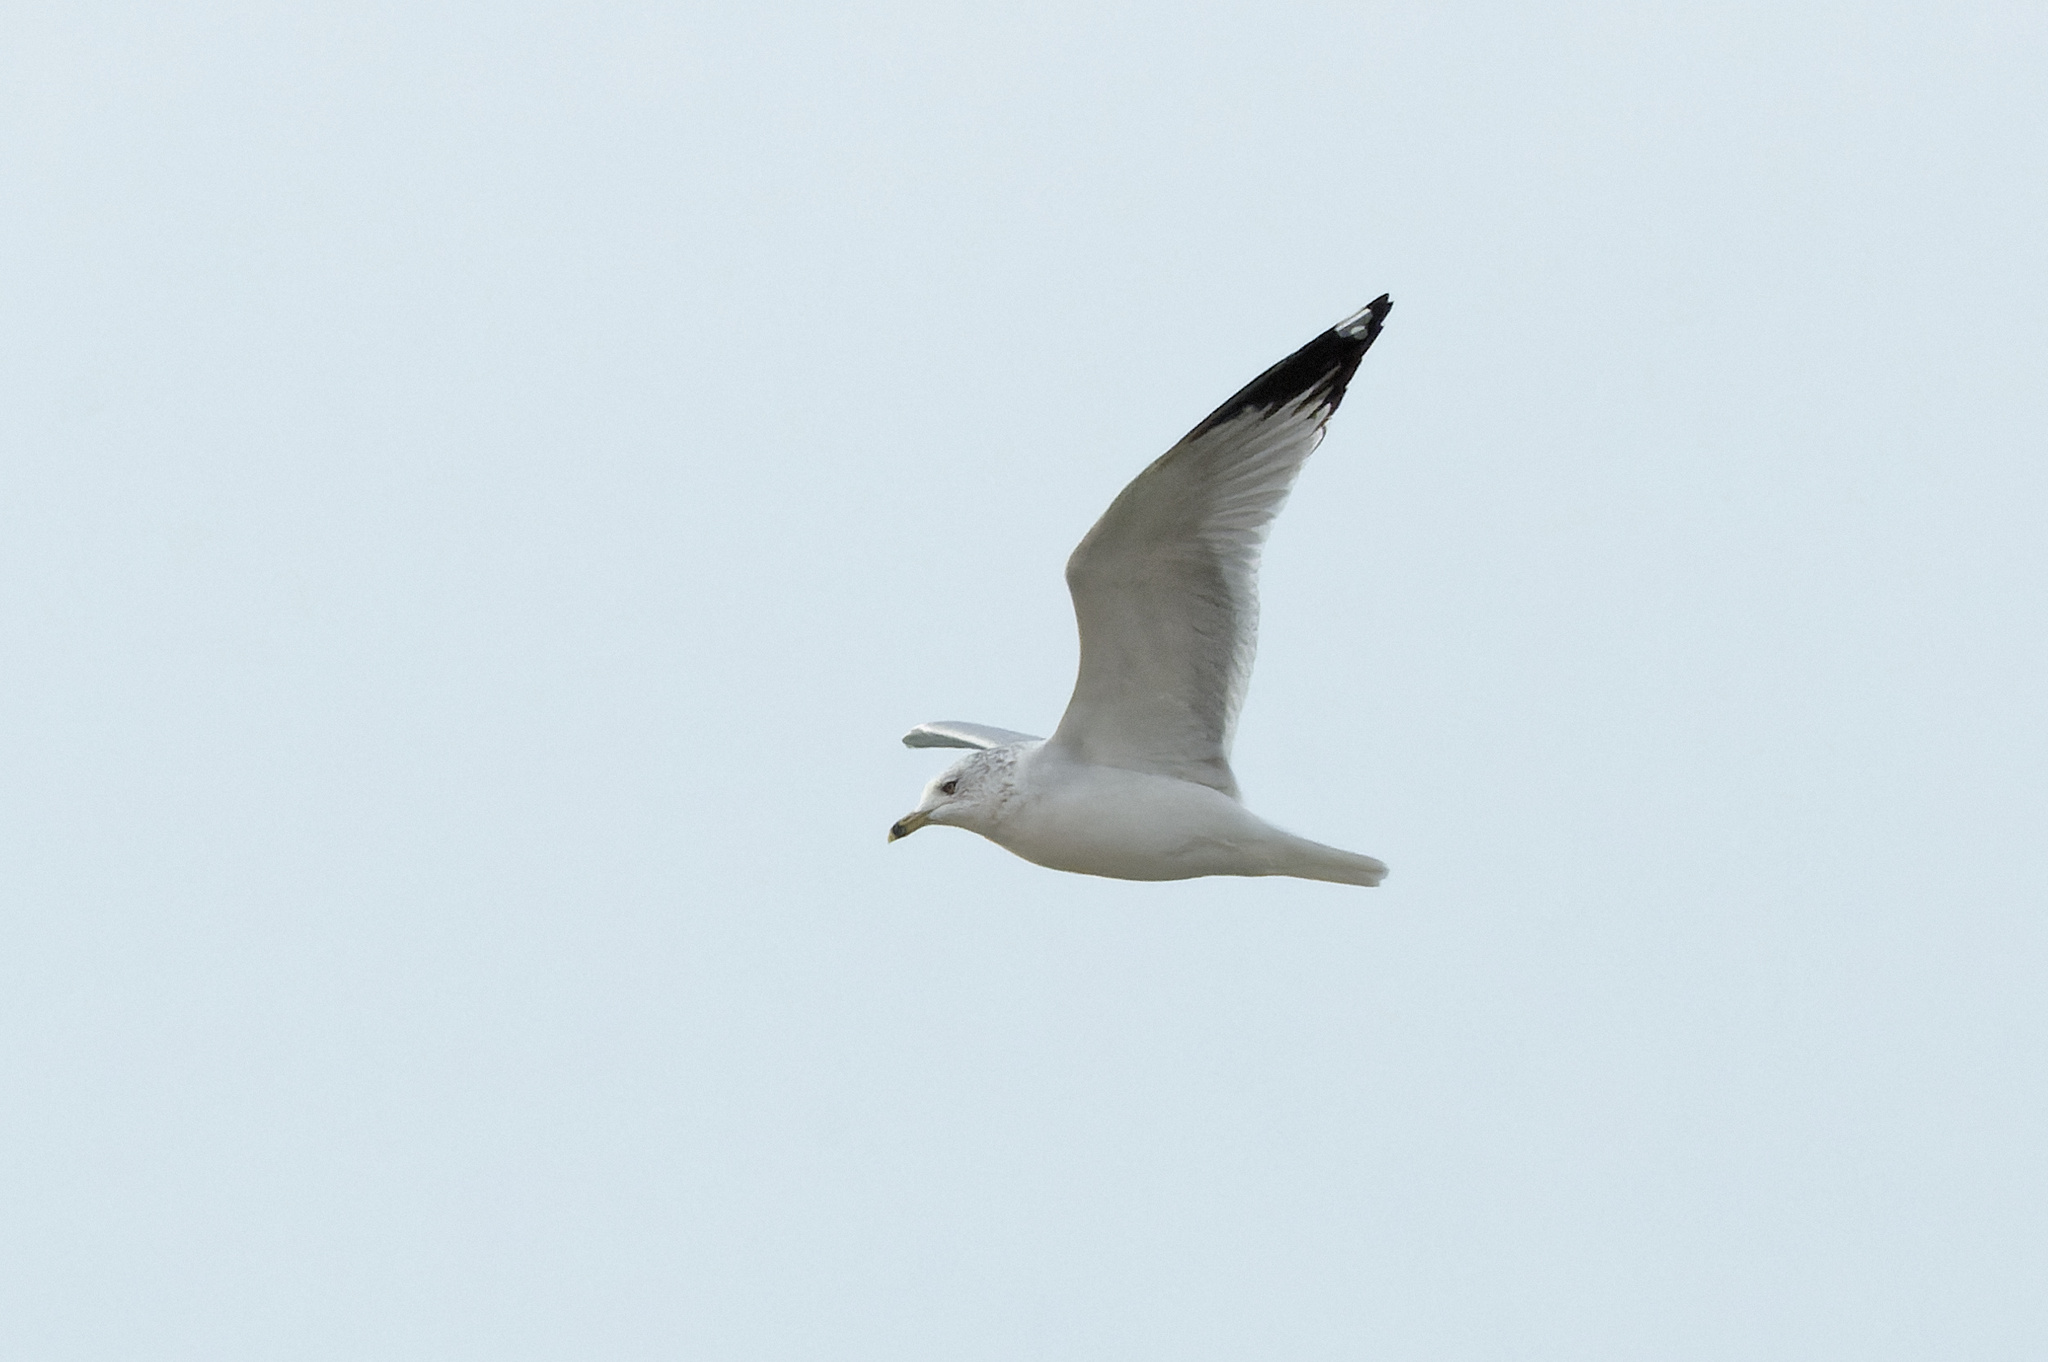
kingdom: Animalia
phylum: Chordata
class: Aves
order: Charadriiformes
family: Laridae
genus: Larus
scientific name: Larus delawarensis
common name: Ring-billed gull
